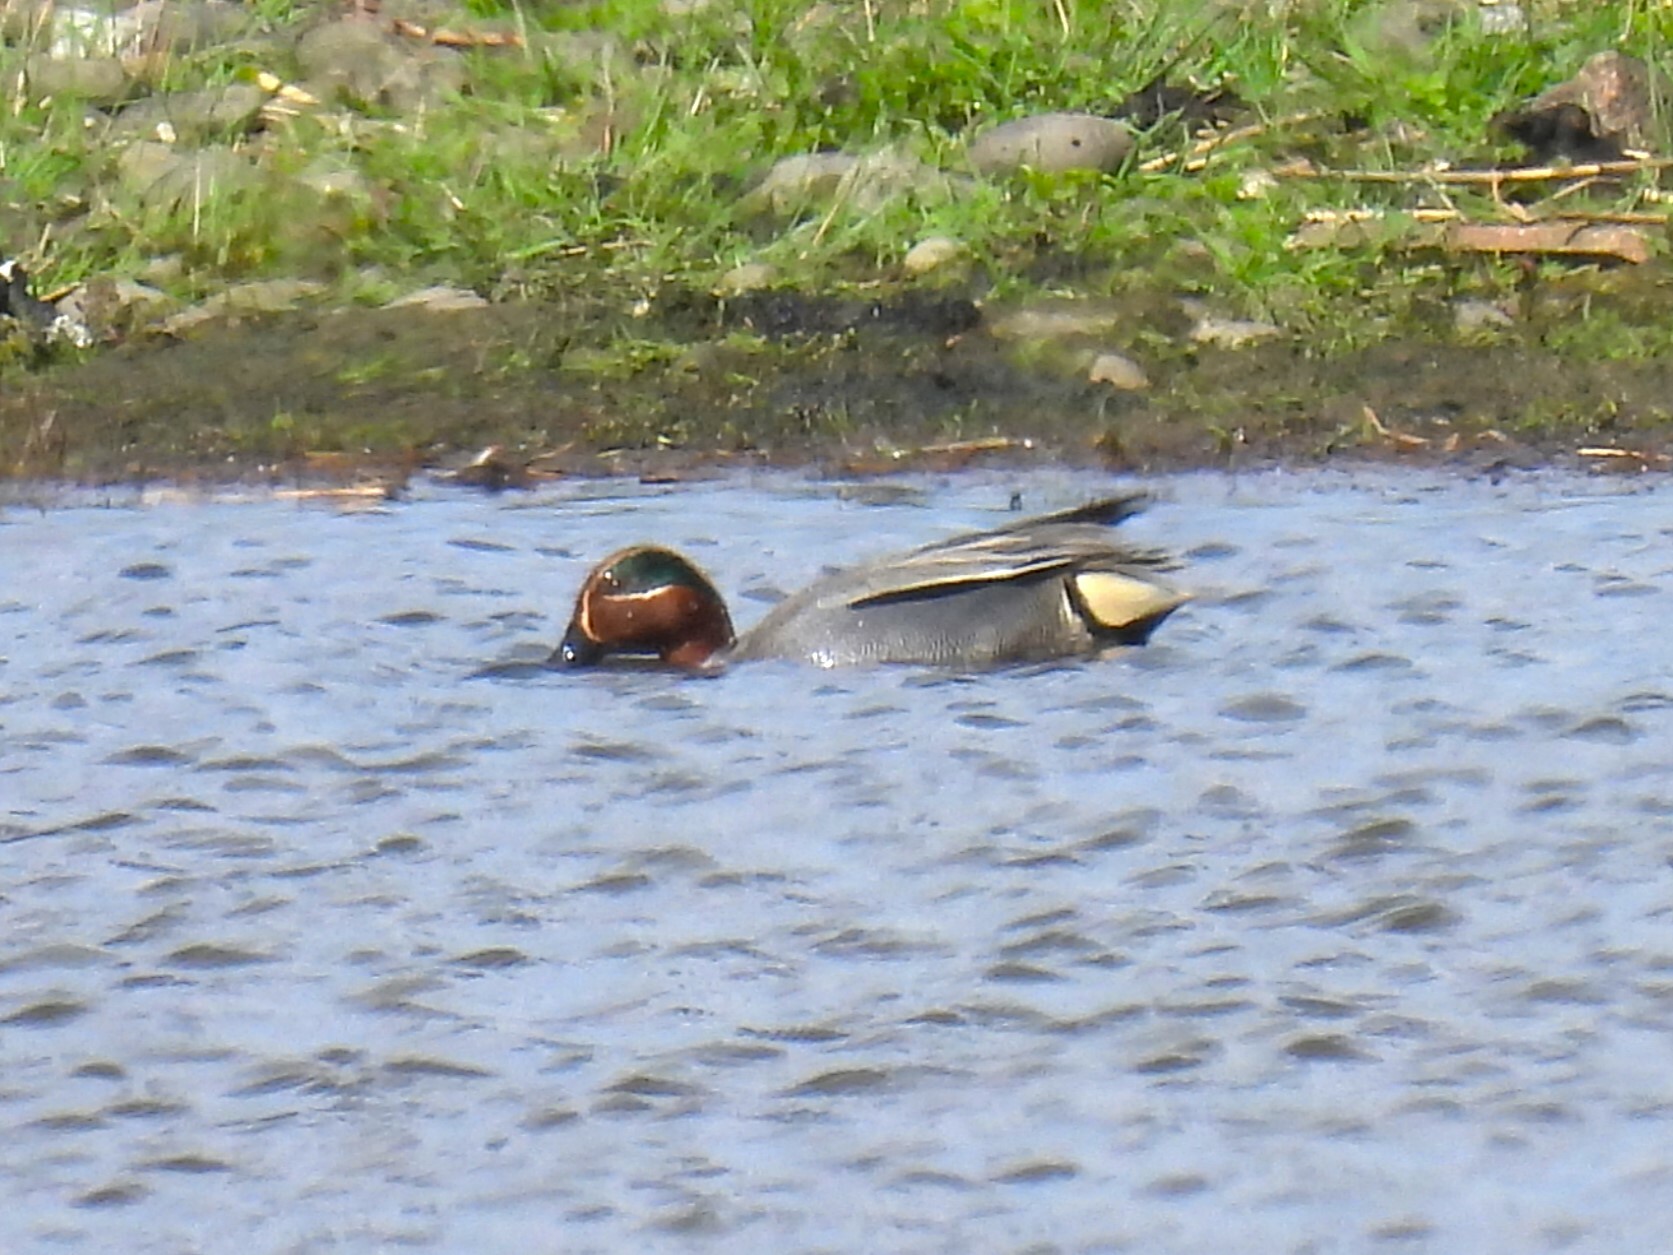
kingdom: Animalia
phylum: Chordata
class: Aves
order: Anseriformes
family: Anatidae
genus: Anas
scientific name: Anas crecca
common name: Eurasian teal
